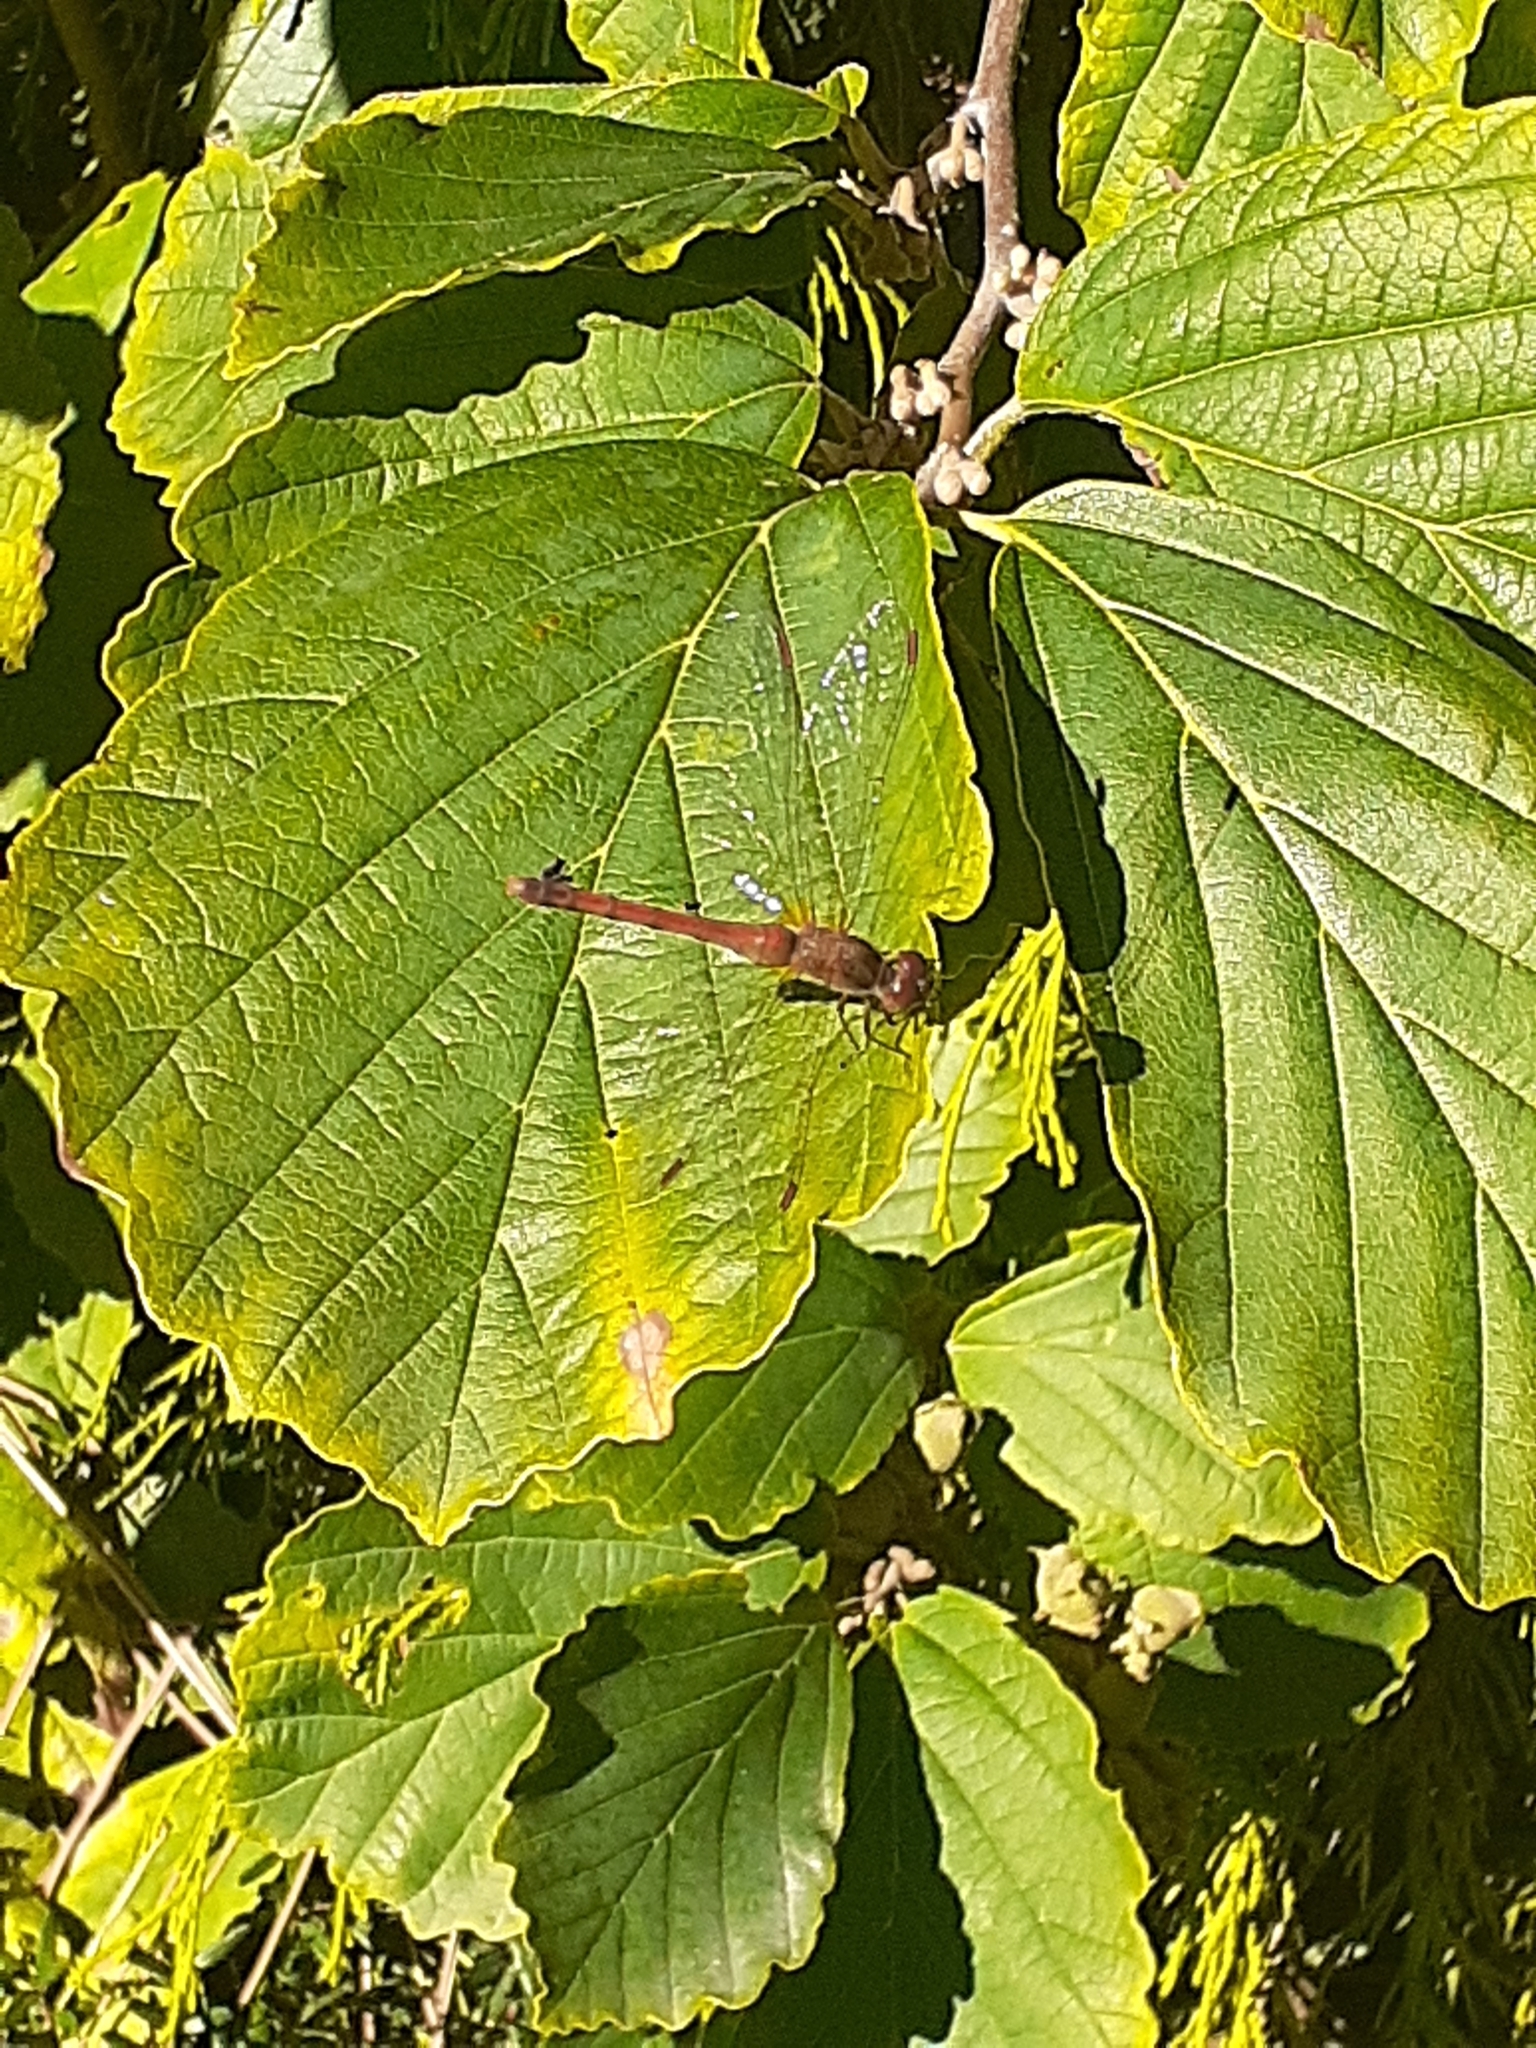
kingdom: Animalia
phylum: Arthropoda
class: Insecta
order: Odonata
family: Libellulidae
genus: Sympetrum
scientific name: Sympetrum vicinum
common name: Autumn meadowhawk
